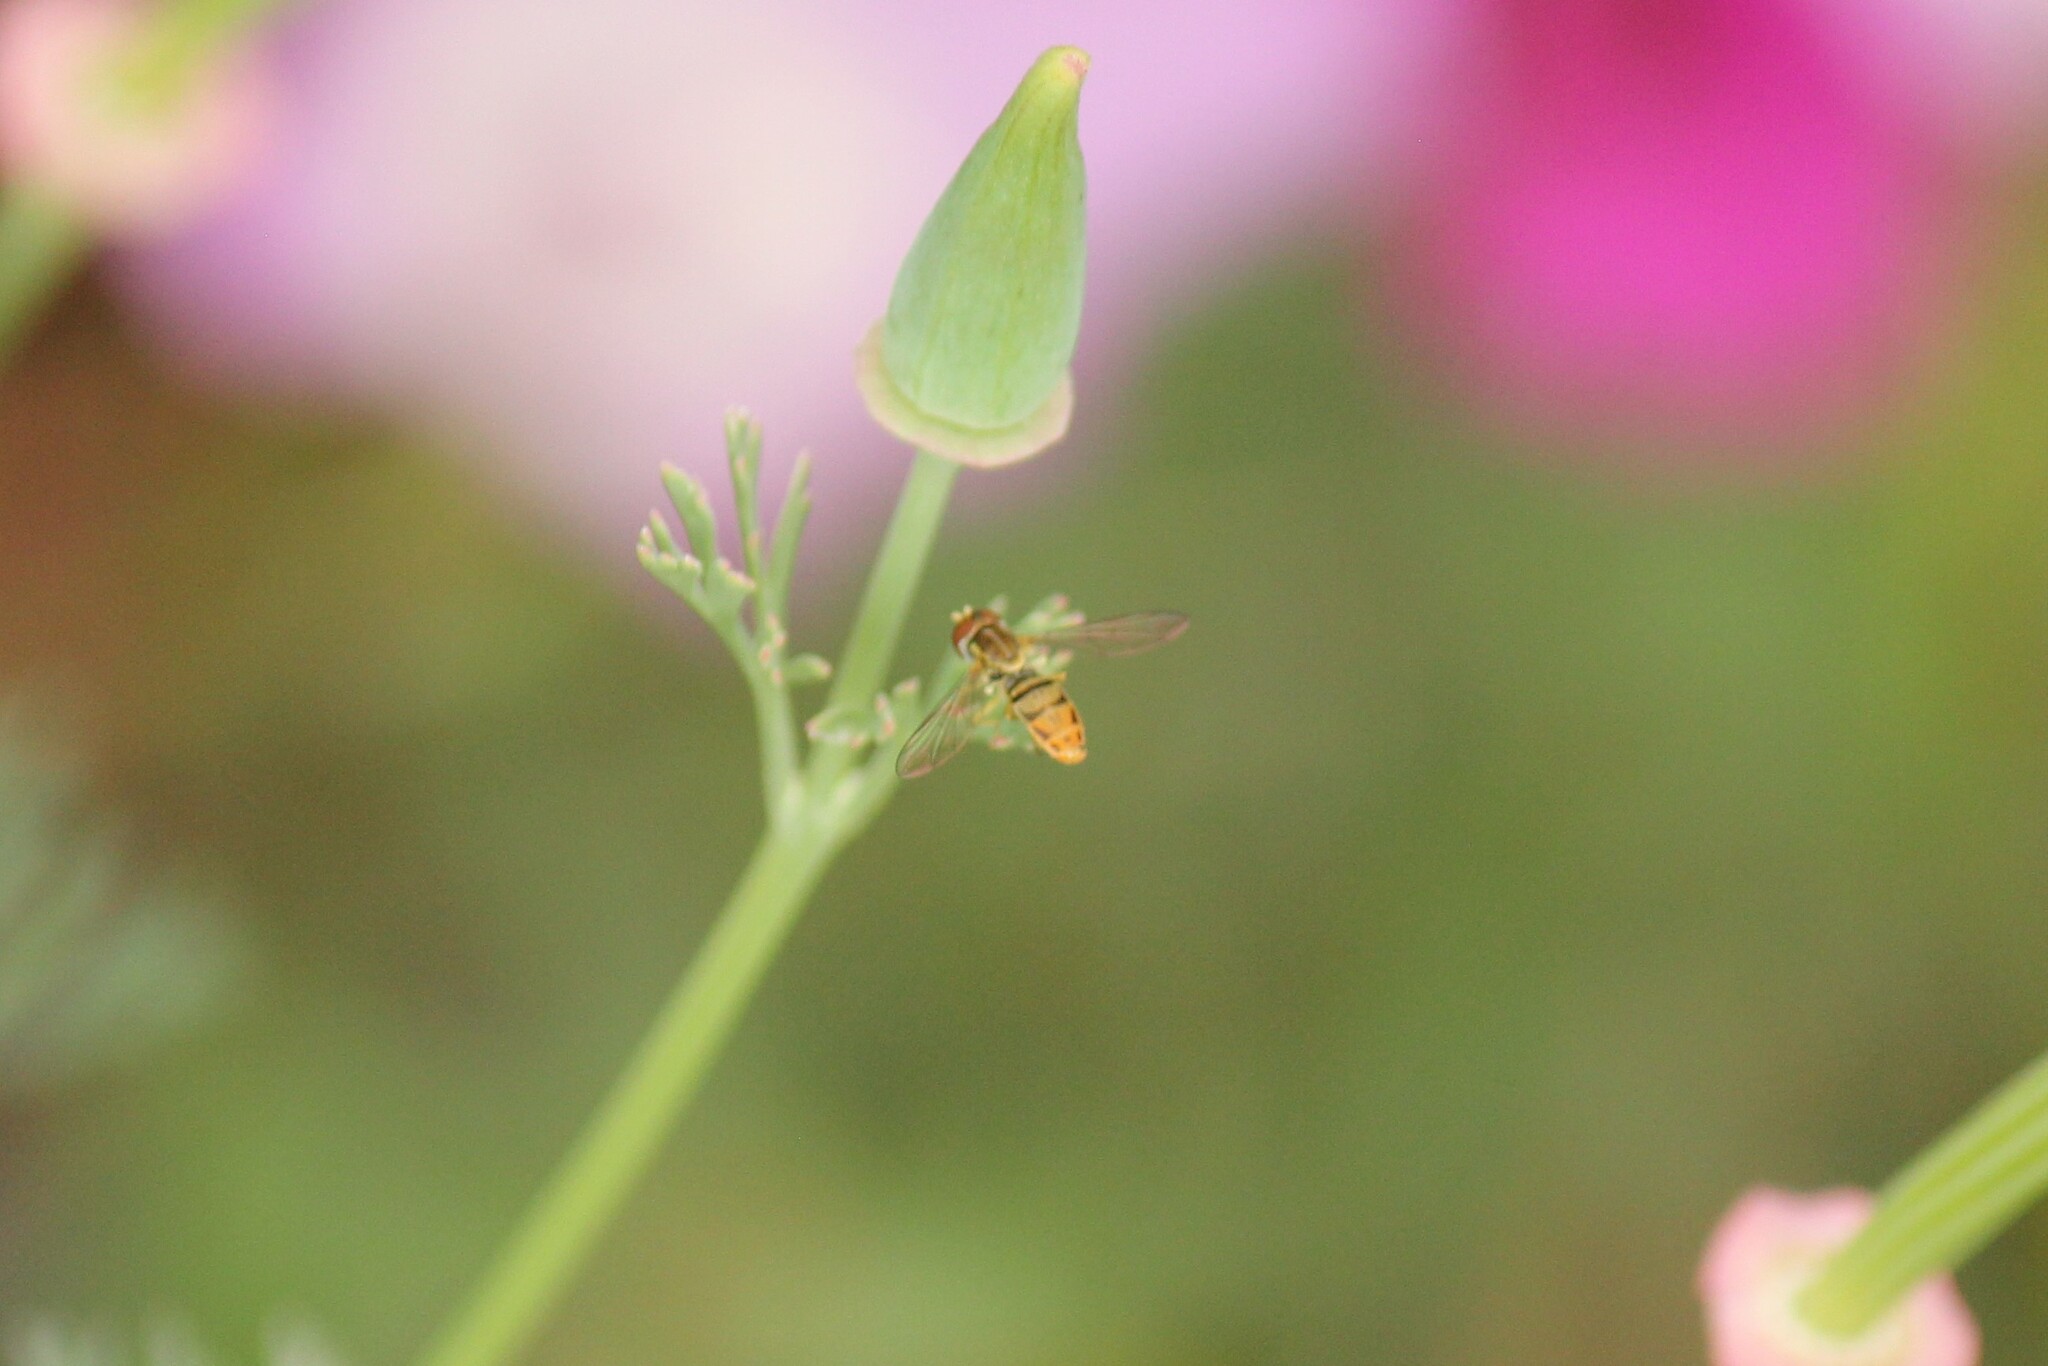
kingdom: Animalia
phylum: Arthropoda
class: Insecta
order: Diptera
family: Syrphidae
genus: Toxomerus
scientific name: Toxomerus marginatus
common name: Syrphid fly
